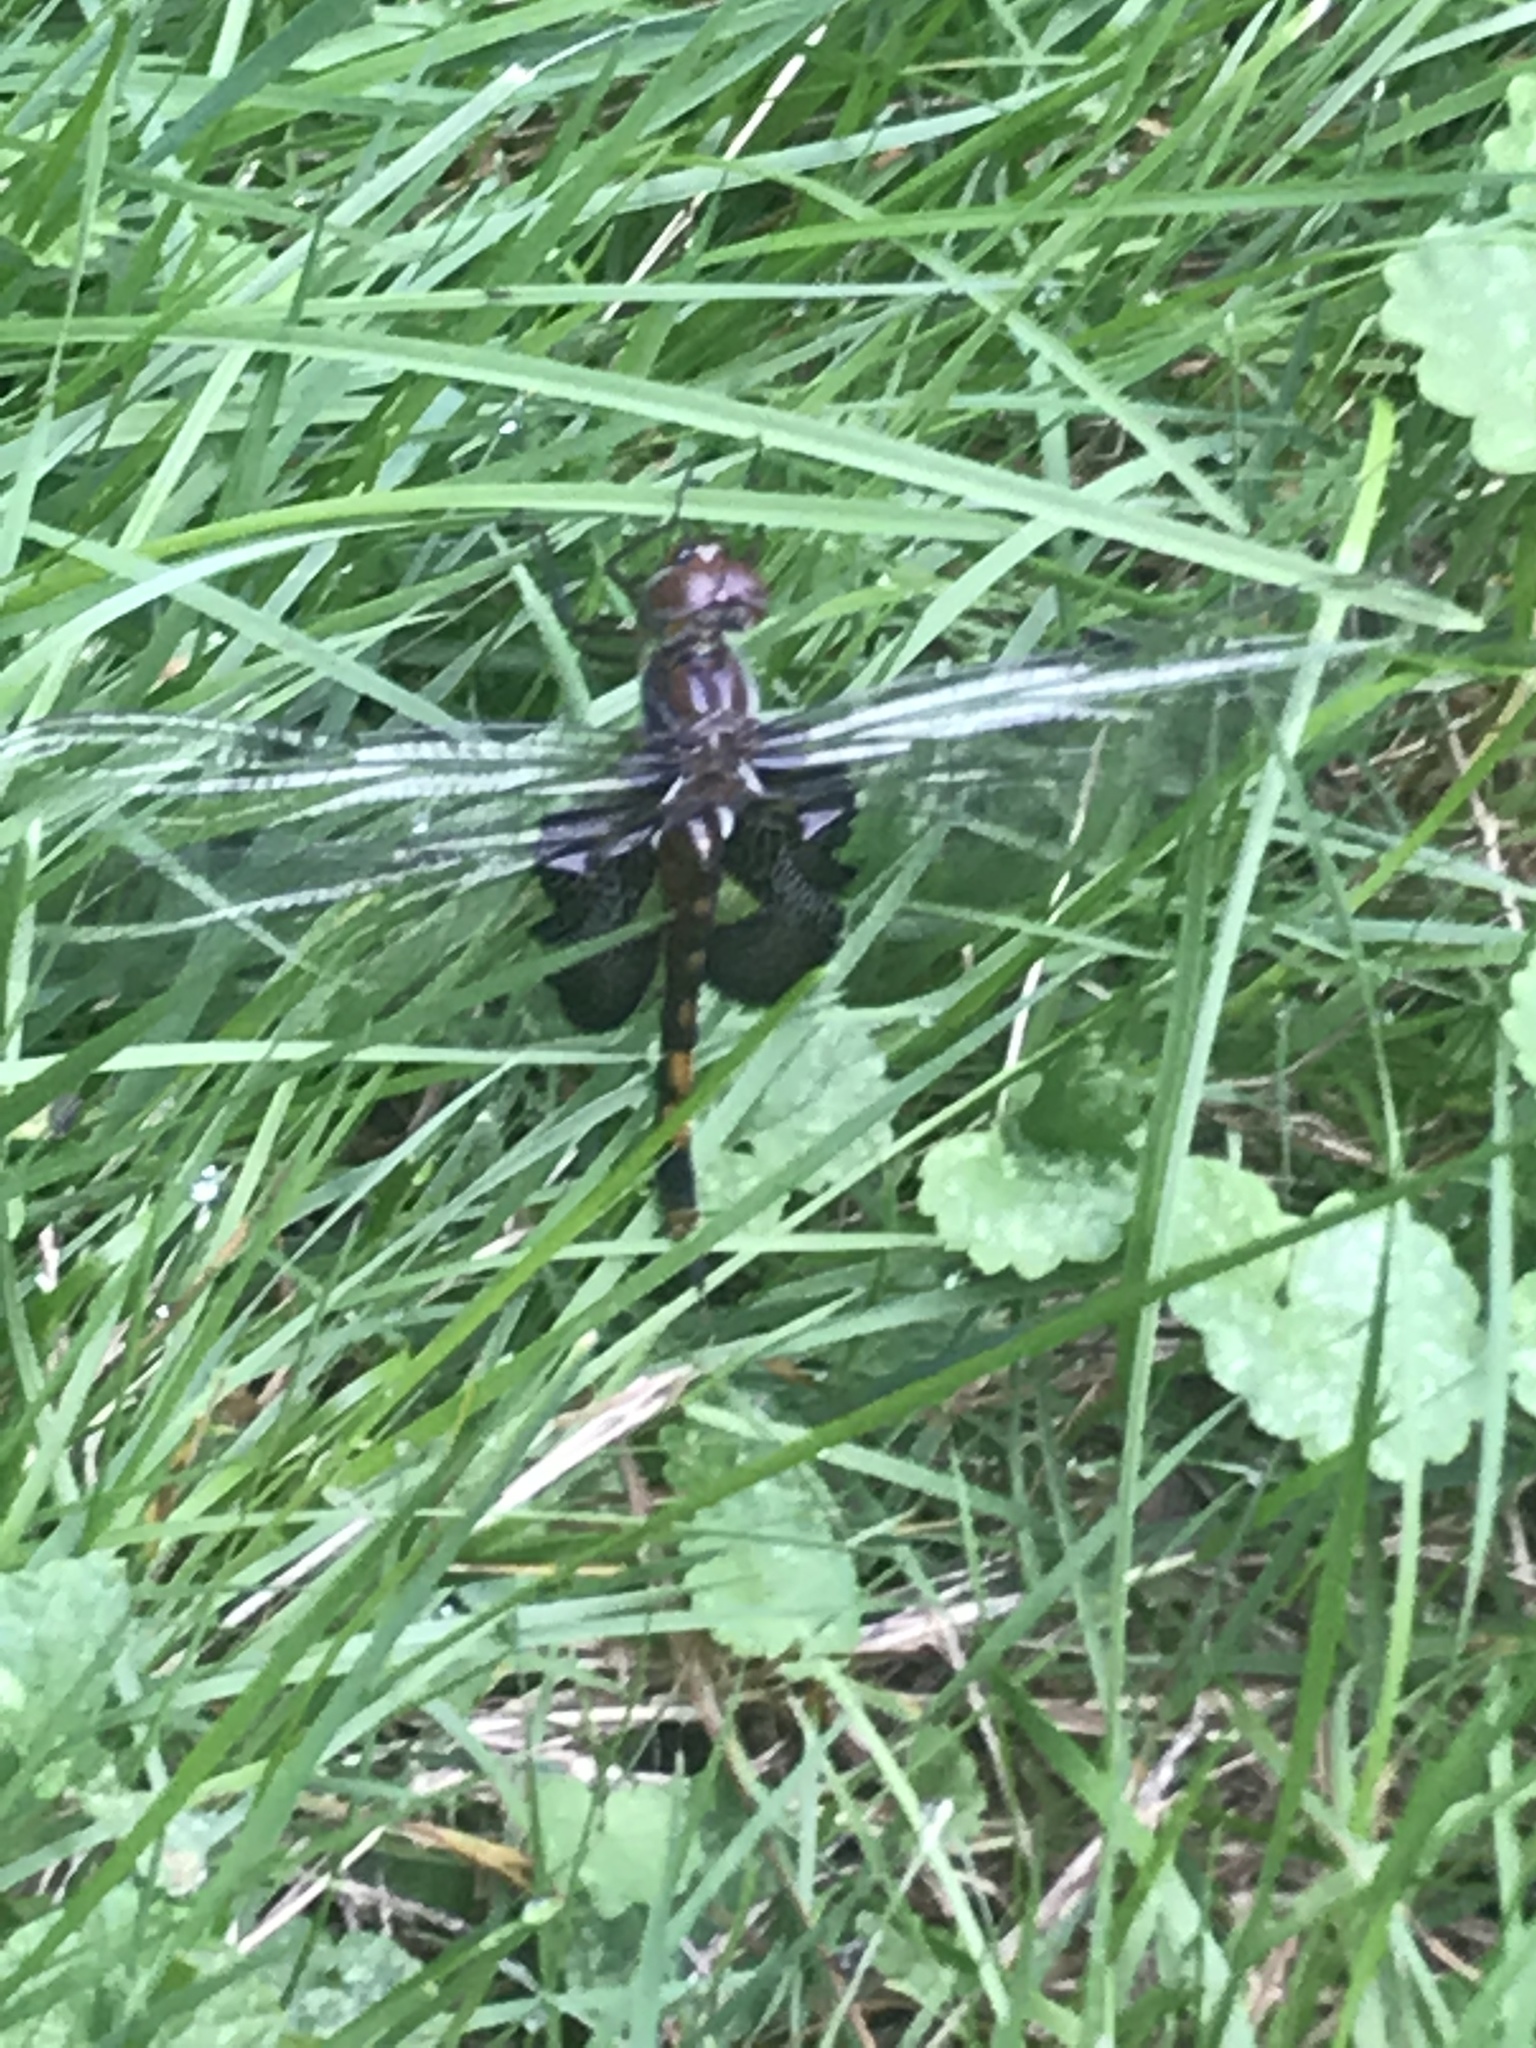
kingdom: Animalia
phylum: Arthropoda
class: Insecta
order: Odonata
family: Libellulidae
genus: Tramea
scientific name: Tramea lacerata
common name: Black saddlebags
